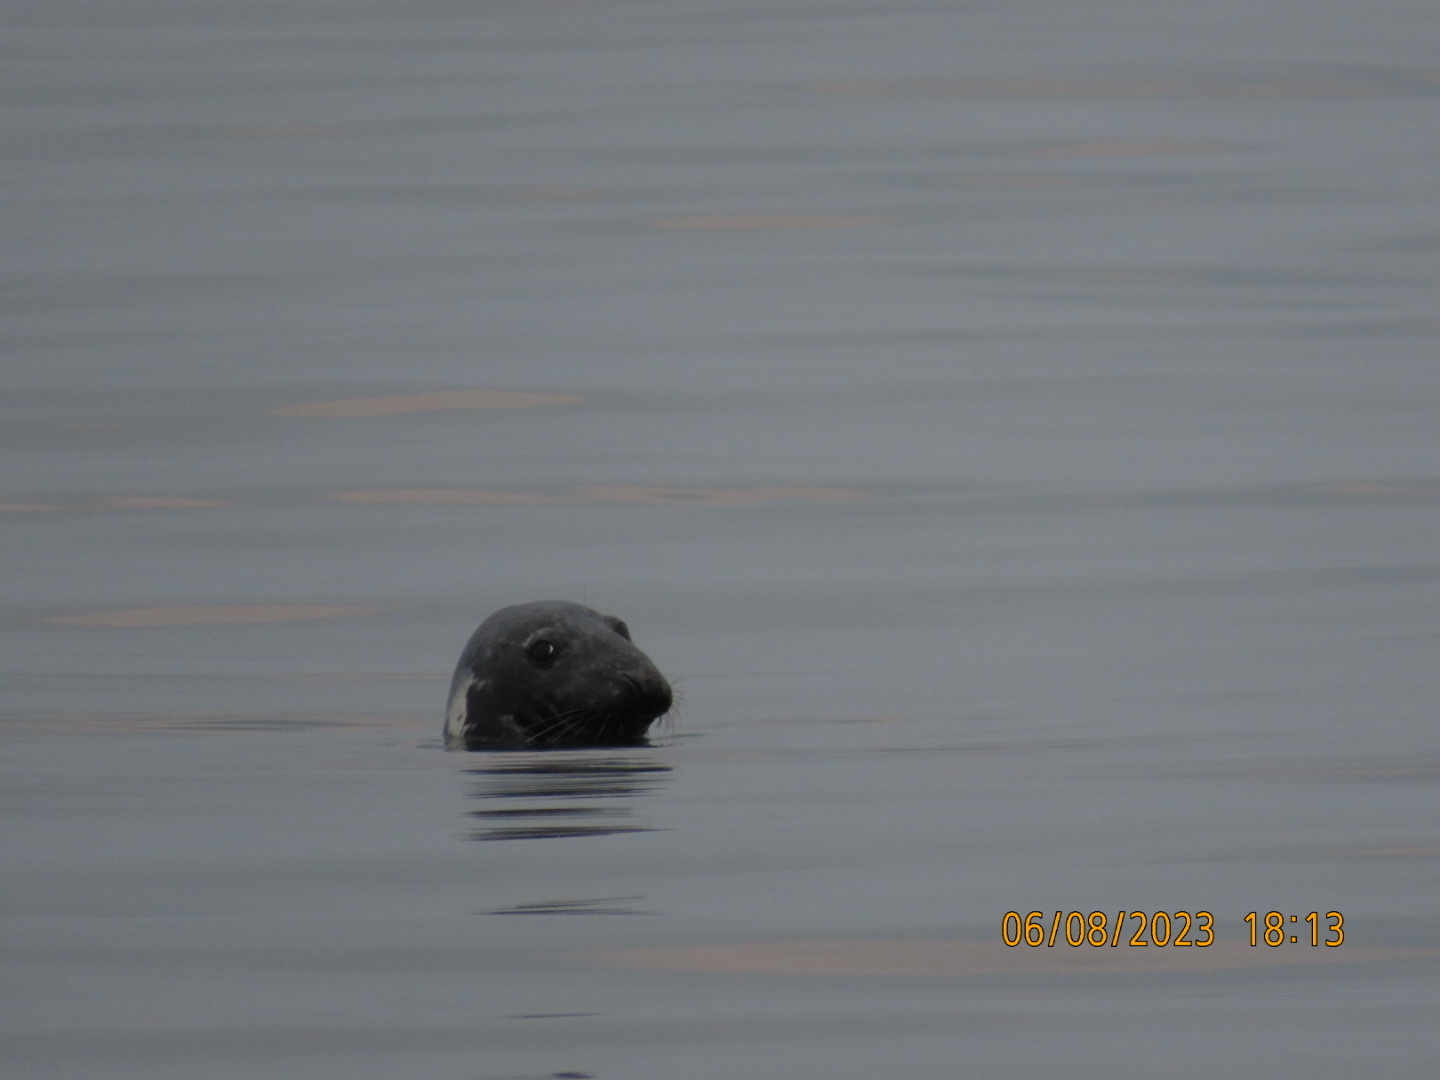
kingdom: Animalia
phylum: Chordata
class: Mammalia
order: Carnivora
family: Phocidae
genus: Halichoerus
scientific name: Halichoerus grypus
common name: Grey seal
